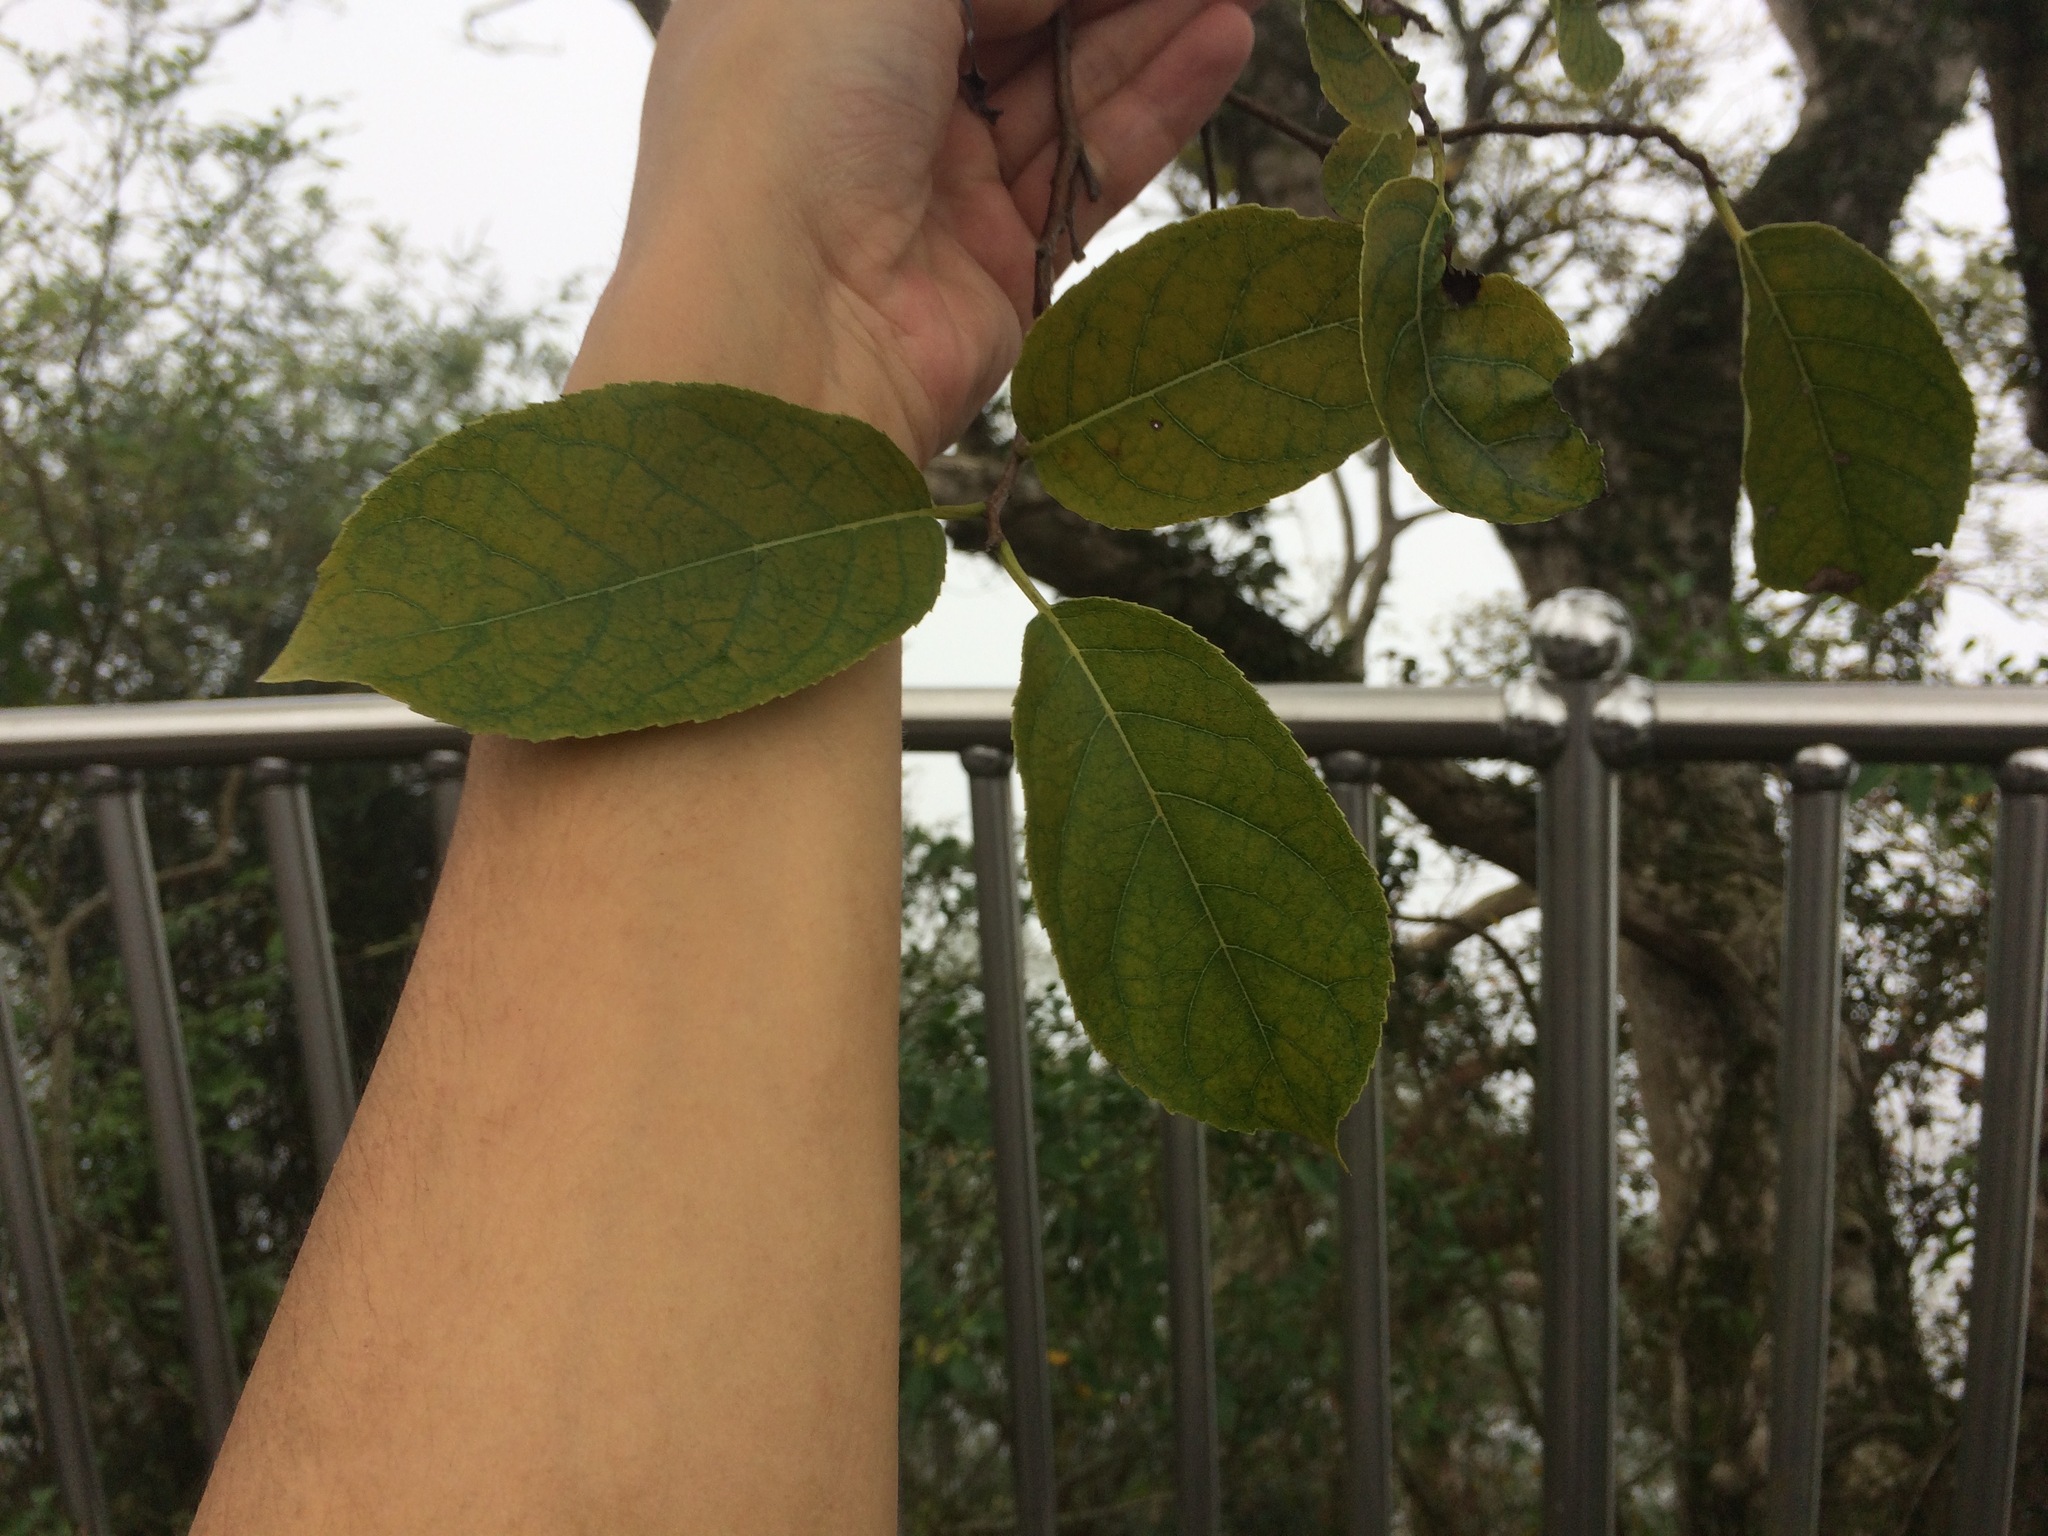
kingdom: Plantae
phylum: Tracheophyta
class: Magnoliopsida
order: Boraginales
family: Ehretiaceae
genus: Ehretia
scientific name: Ehretia acuminata
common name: Kodo wood
